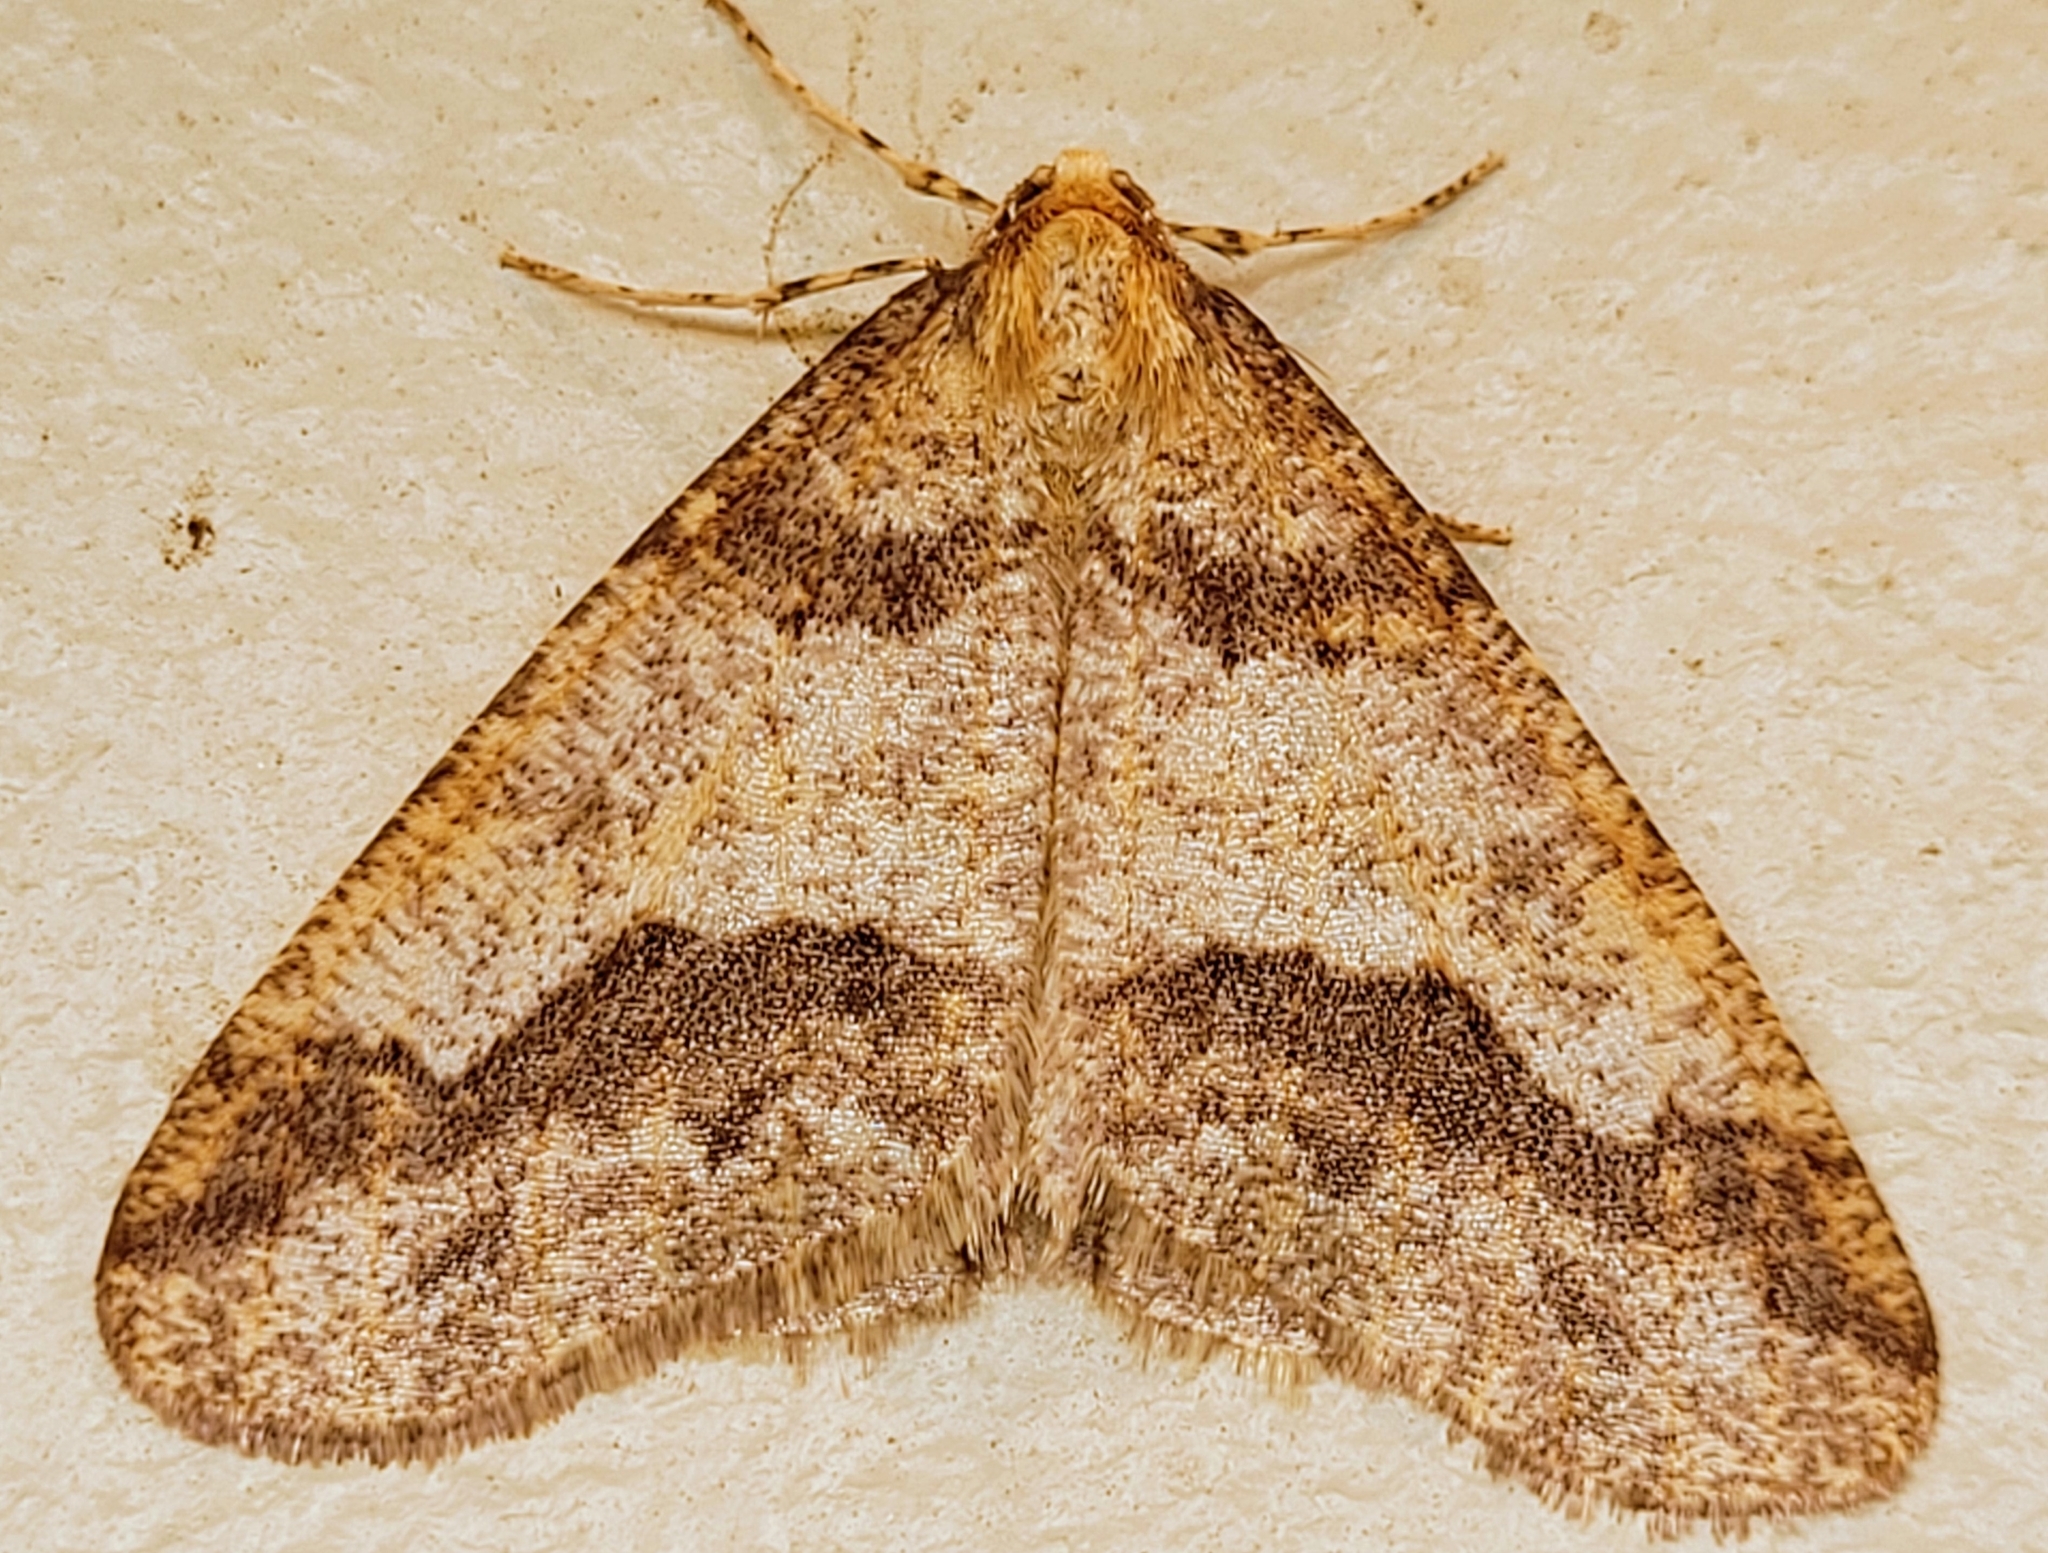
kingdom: Animalia
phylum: Arthropoda
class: Insecta
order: Lepidoptera
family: Geometridae
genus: Erannis
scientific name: Erannis tiliaria
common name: Linden looper
